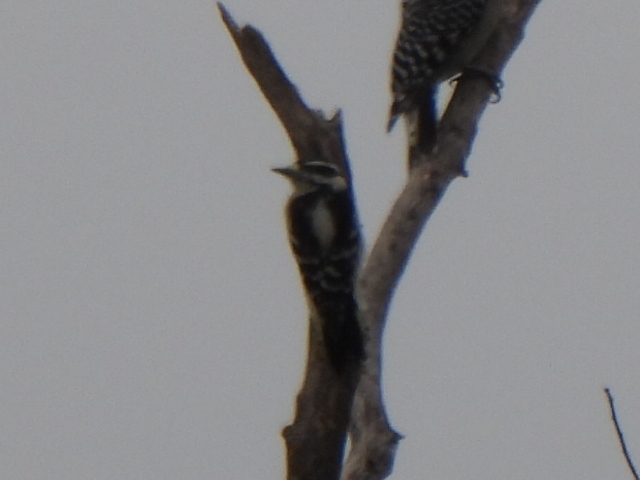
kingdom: Animalia
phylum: Chordata
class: Aves
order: Piciformes
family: Picidae
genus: Dryobates
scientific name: Dryobates pubescens
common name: Downy woodpecker
